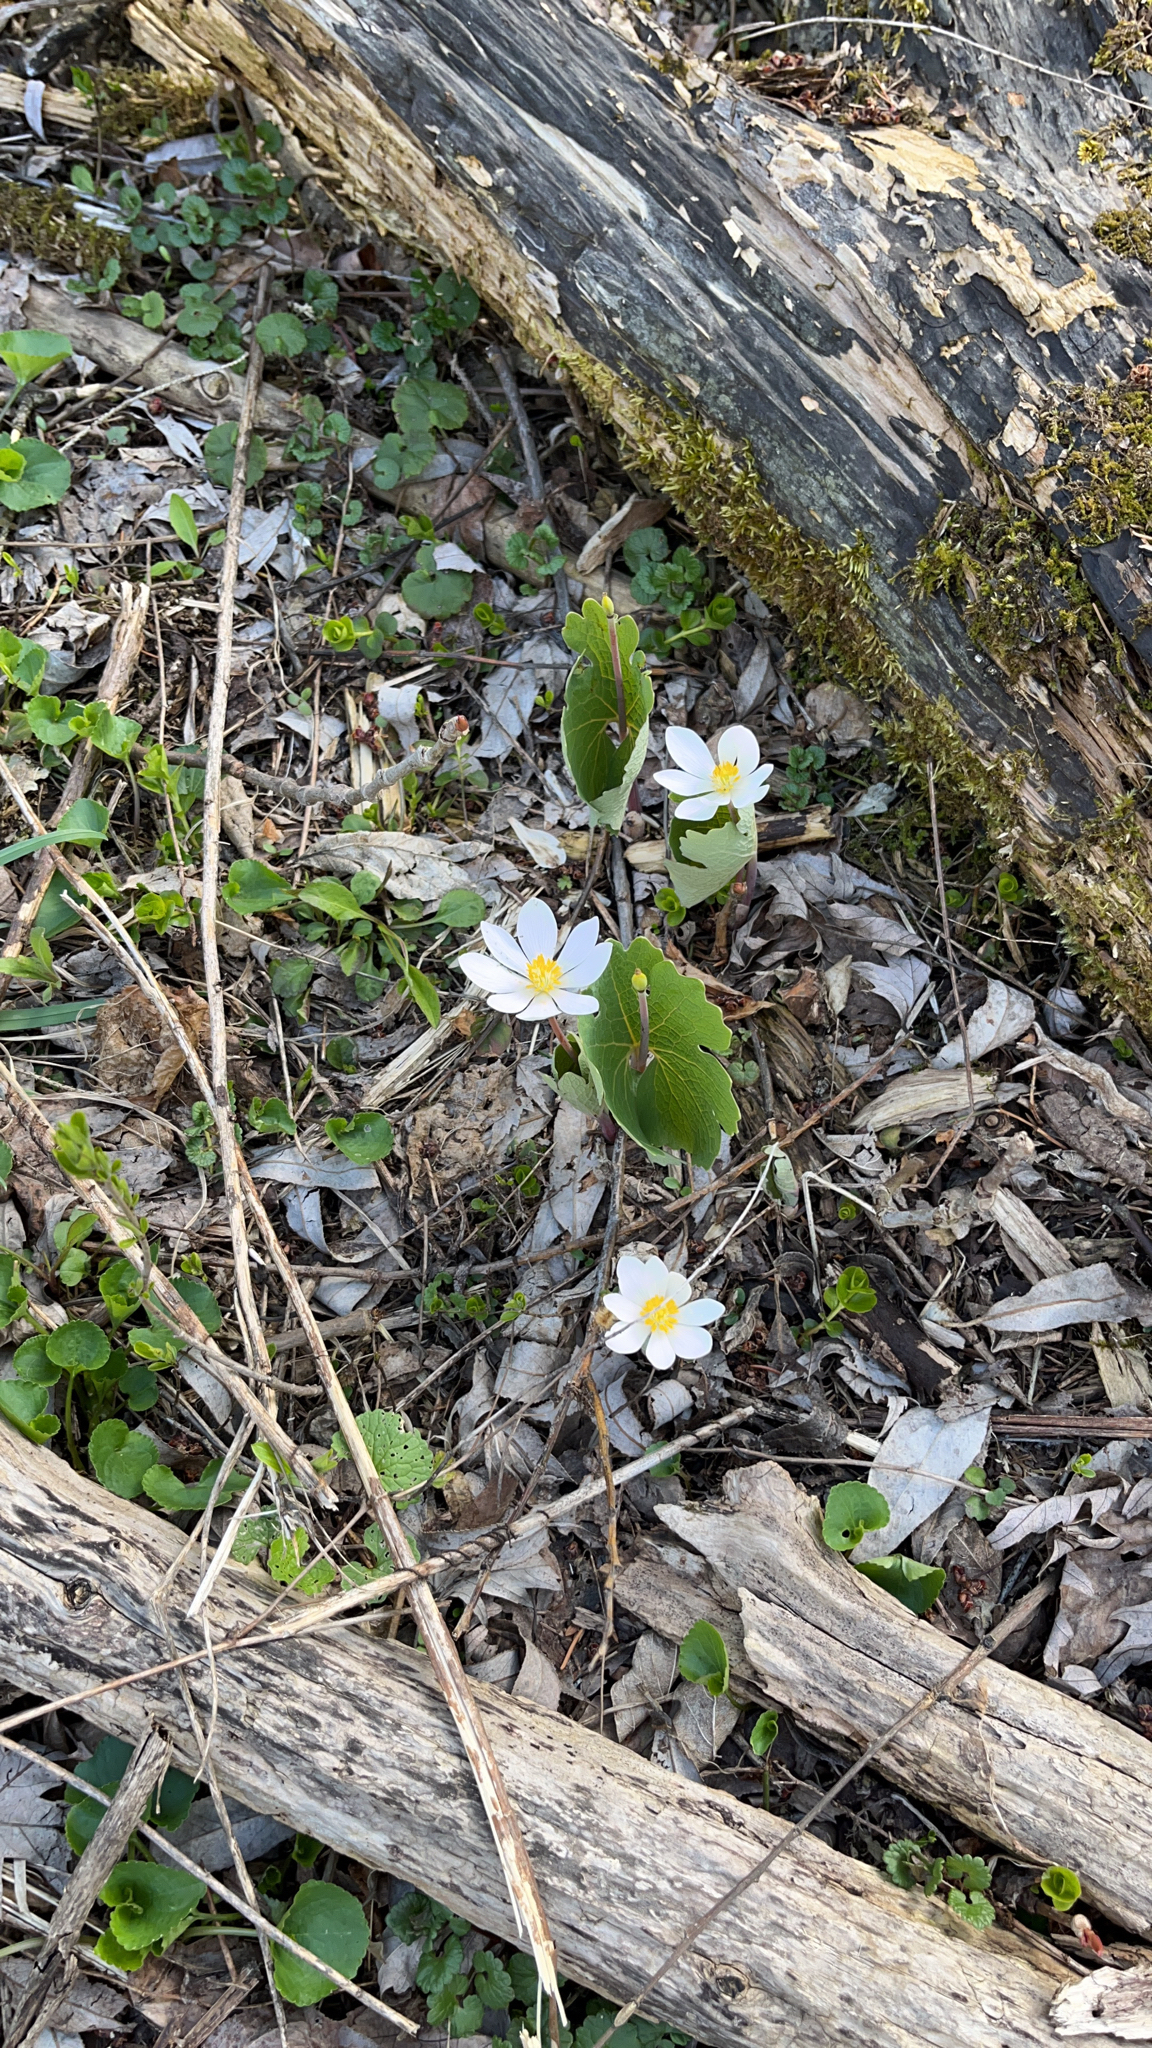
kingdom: Plantae
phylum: Tracheophyta
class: Magnoliopsida
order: Ranunculales
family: Papaveraceae
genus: Sanguinaria
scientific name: Sanguinaria canadensis
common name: Bloodroot
